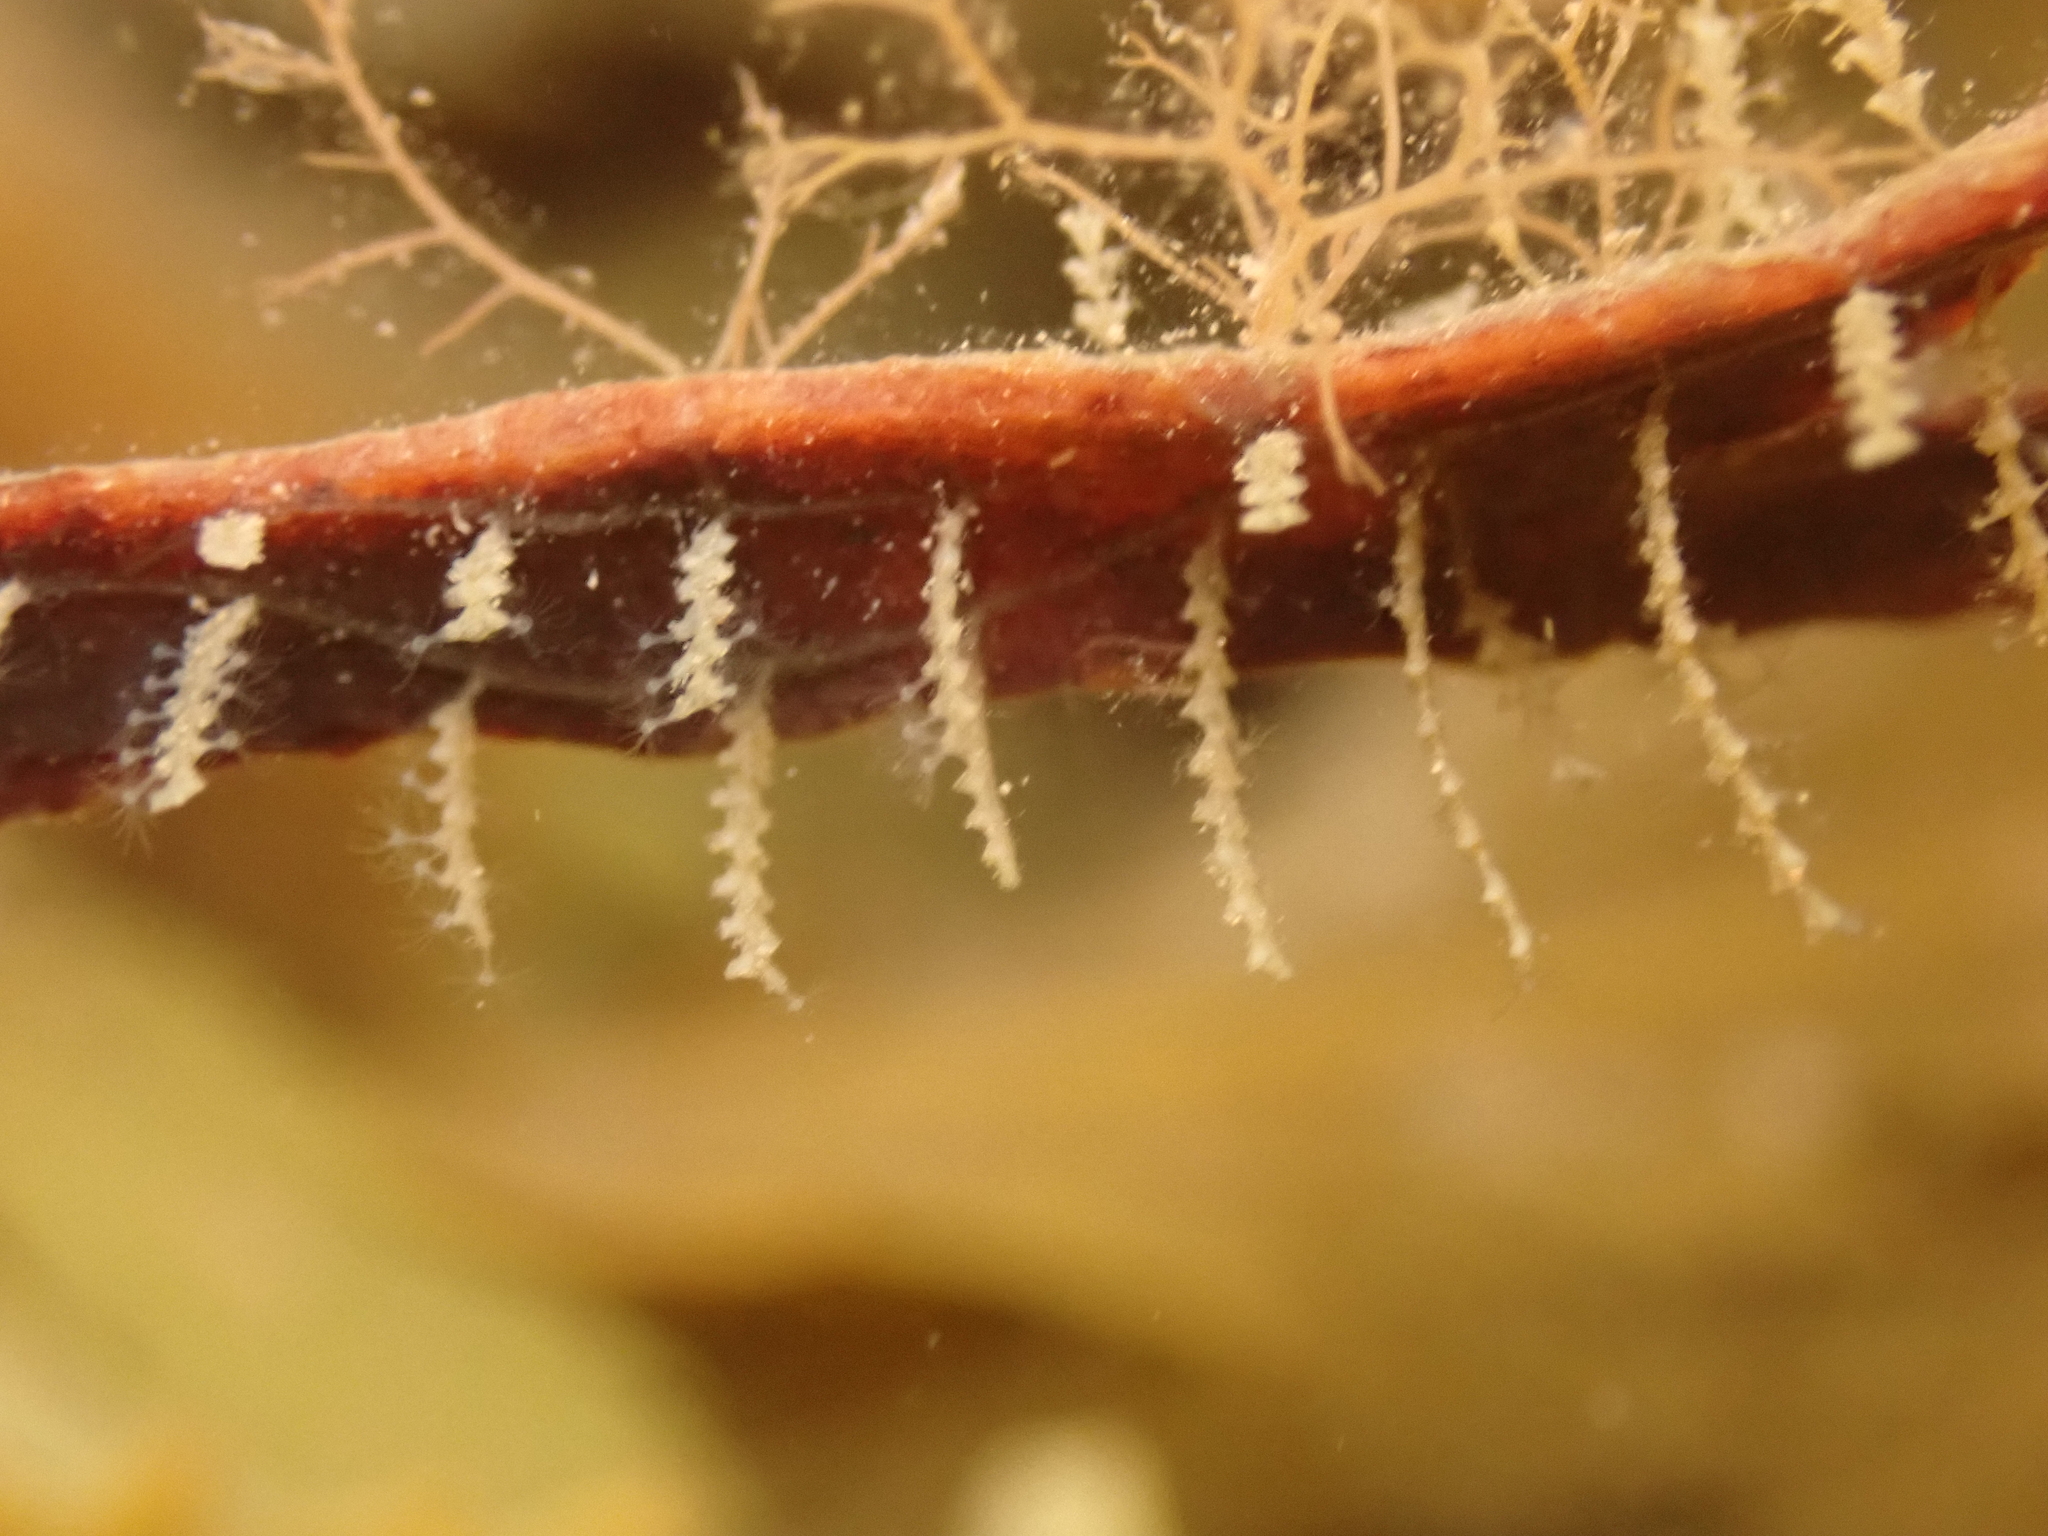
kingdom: Animalia
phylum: Cnidaria
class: Hydrozoa
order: Leptothecata
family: Sertulariidae
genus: Dynamena
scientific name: Dynamena pumila
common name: Sea oak
